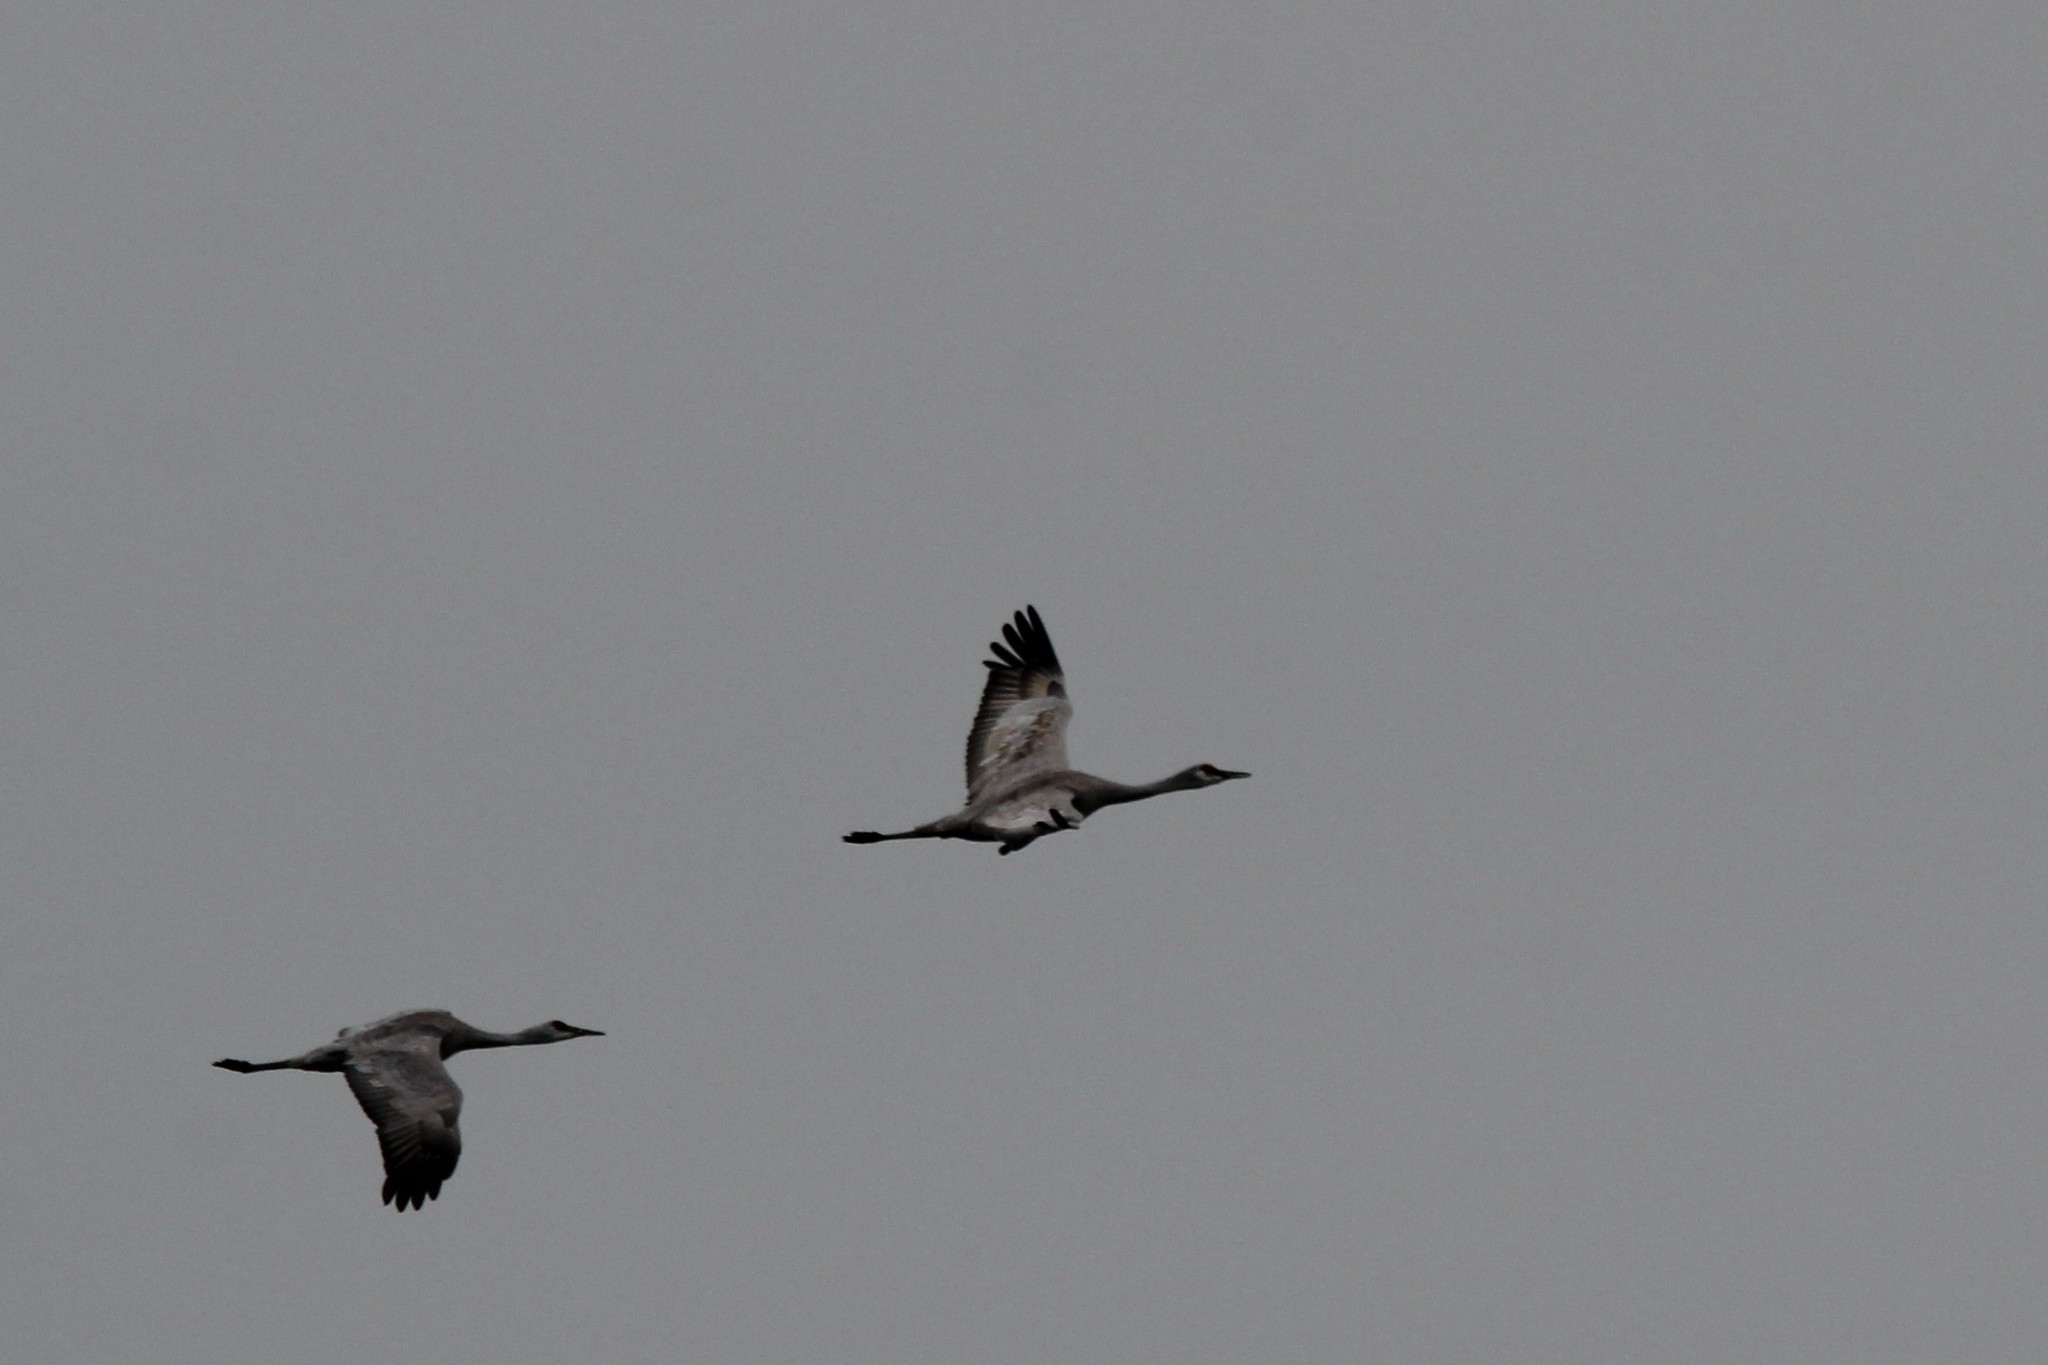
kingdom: Animalia
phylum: Chordata
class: Aves
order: Gruiformes
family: Gruidae
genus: Grus
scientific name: Grus canadensis
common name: Sandhill crane
